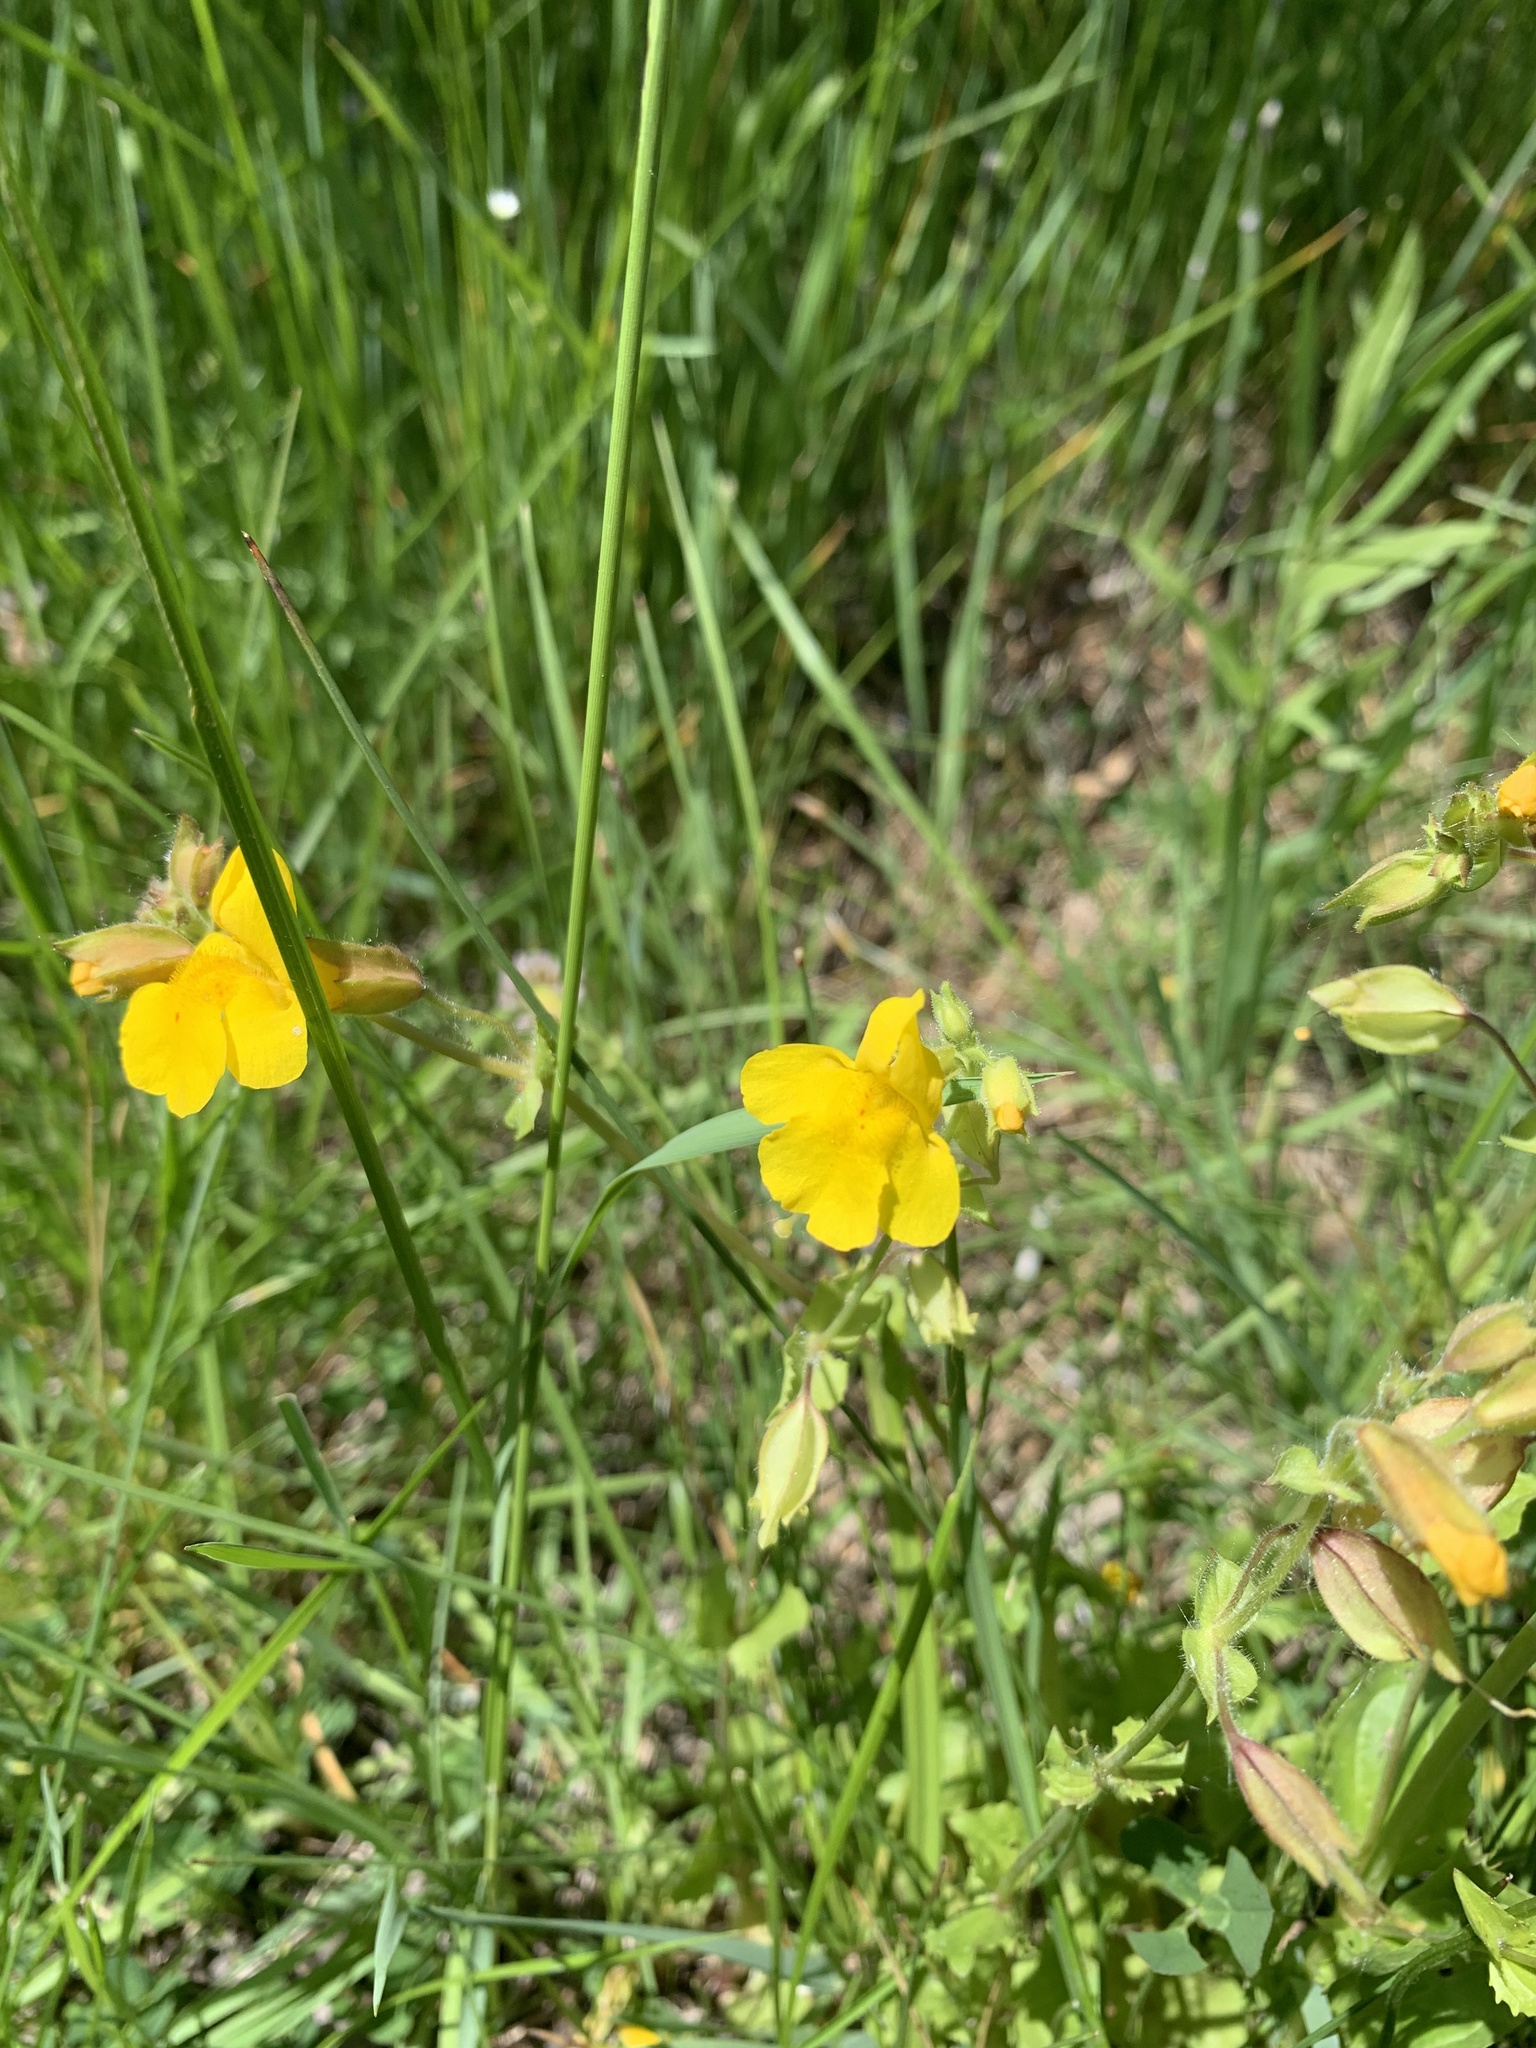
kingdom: Plantae
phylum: Tracheophyta
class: Magnoliopsida
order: Lamiales
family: Phrymaceae
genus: Erythranthe
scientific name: Erythranthe guttata
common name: Monkeyflower
